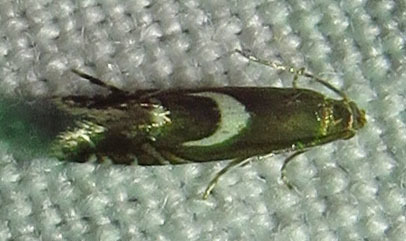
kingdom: Animalia
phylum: Arthropoda
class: Insecta
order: Lepidoptera
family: Glyphipterigidae
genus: Glyphipterix
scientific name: Glyphipterix Diploschizia impigritella
